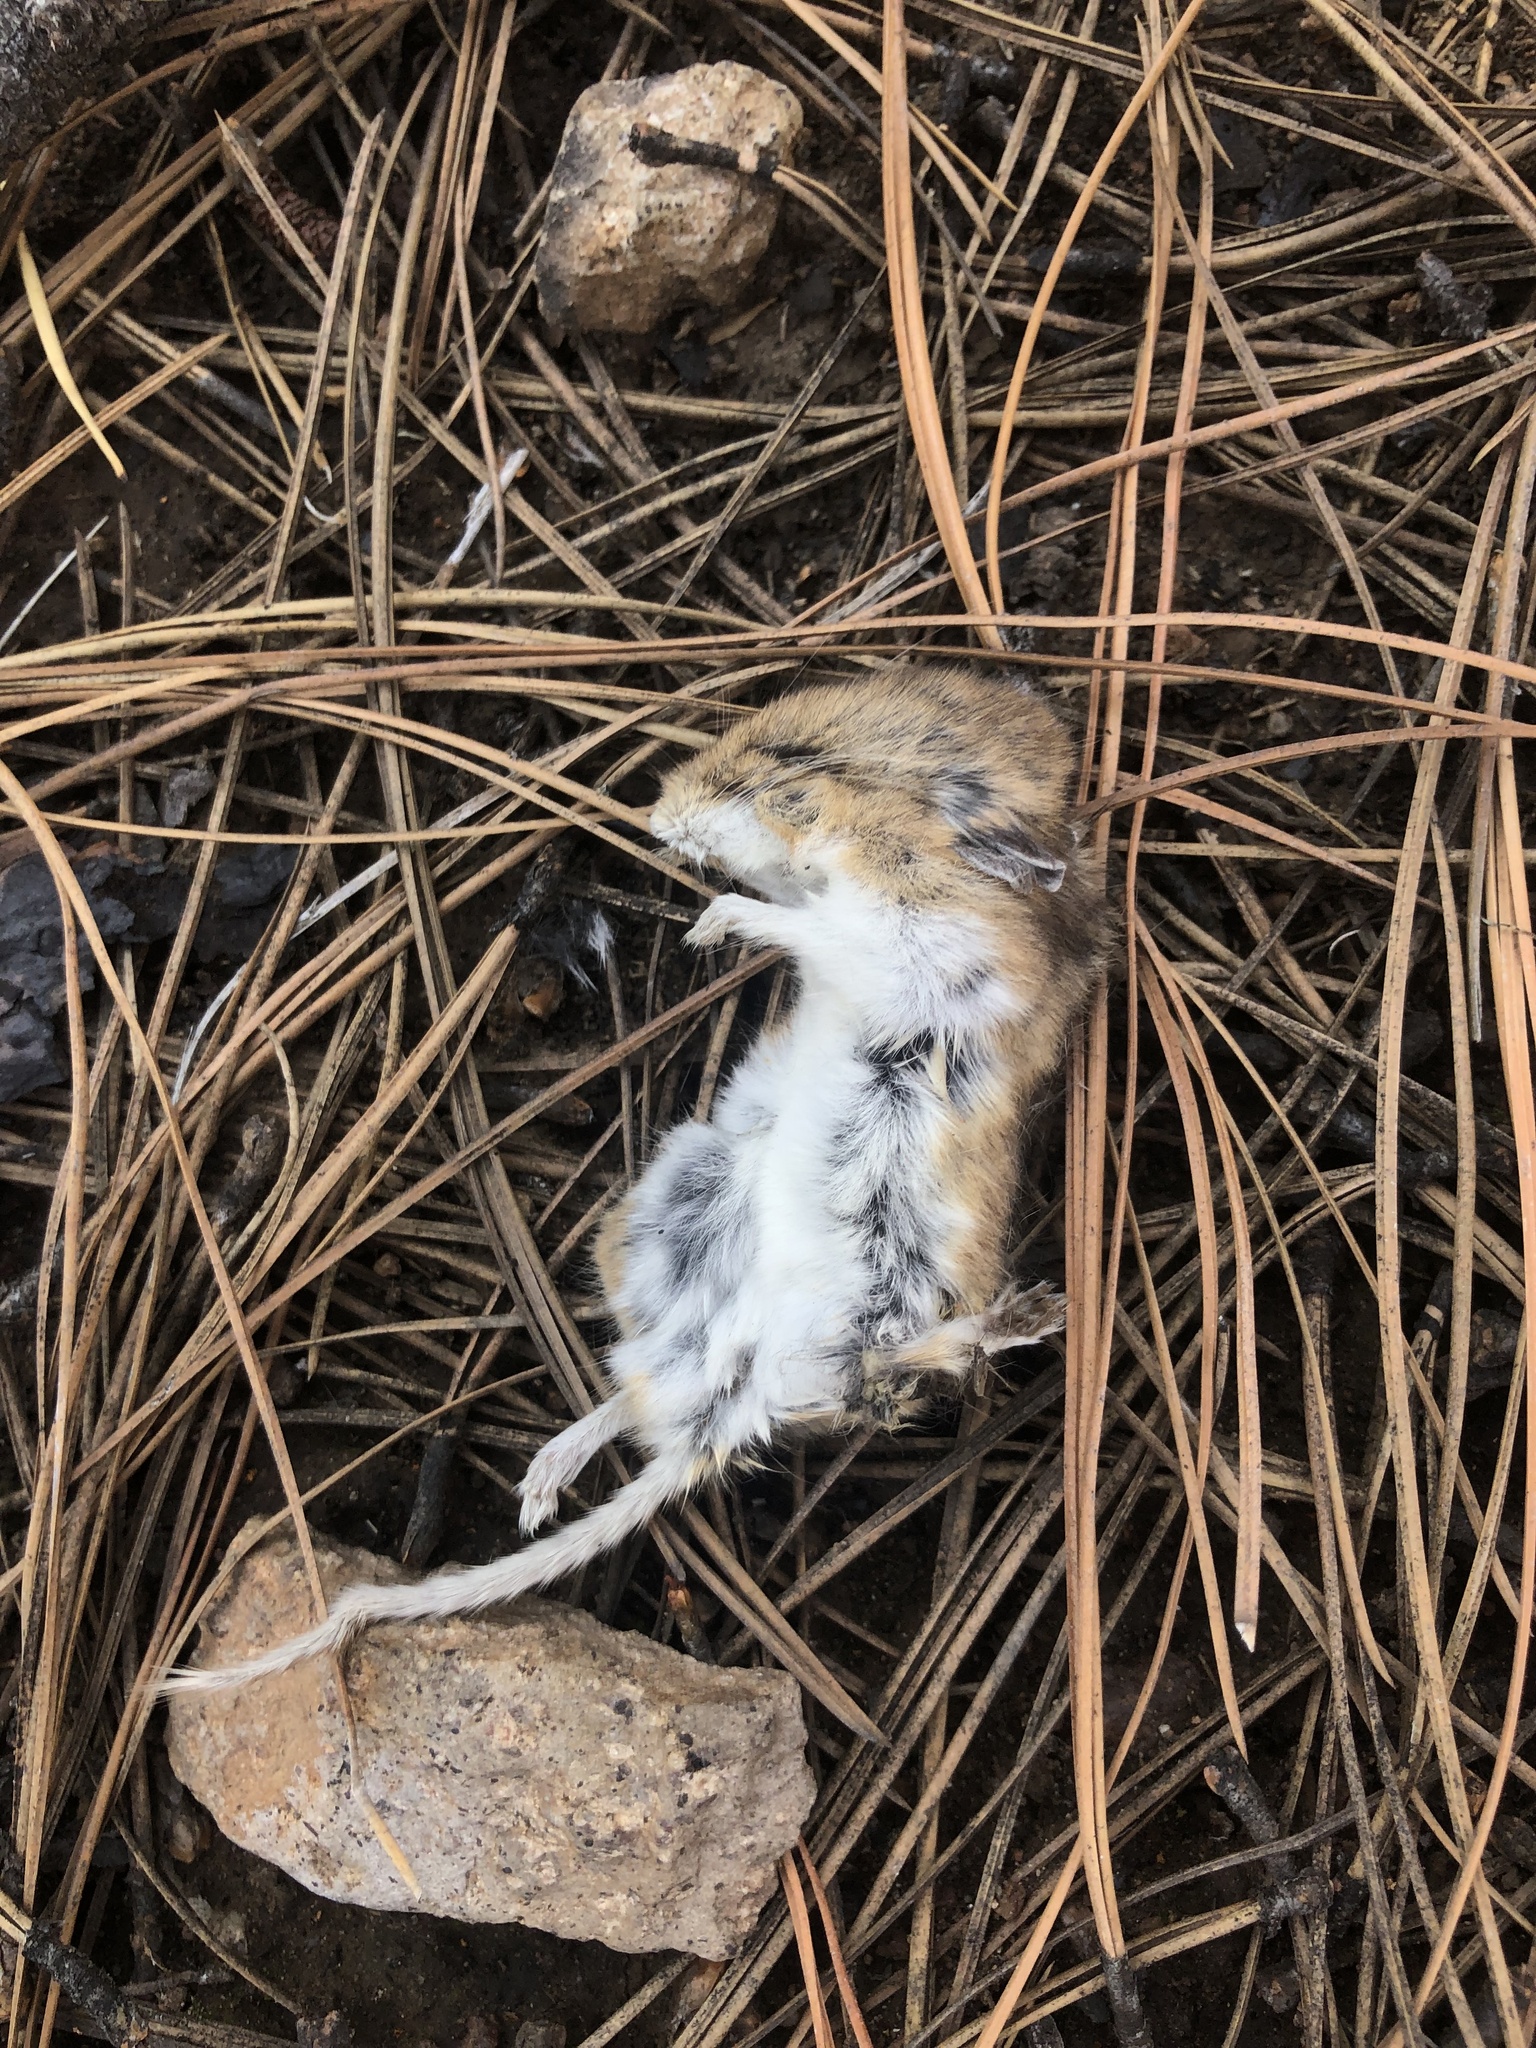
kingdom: Animalia
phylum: Chordata
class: Mammalia
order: Rodentia
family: Cricetidae
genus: Peromyscus
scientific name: Peromyscus maniculatus
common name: Deer mouse
